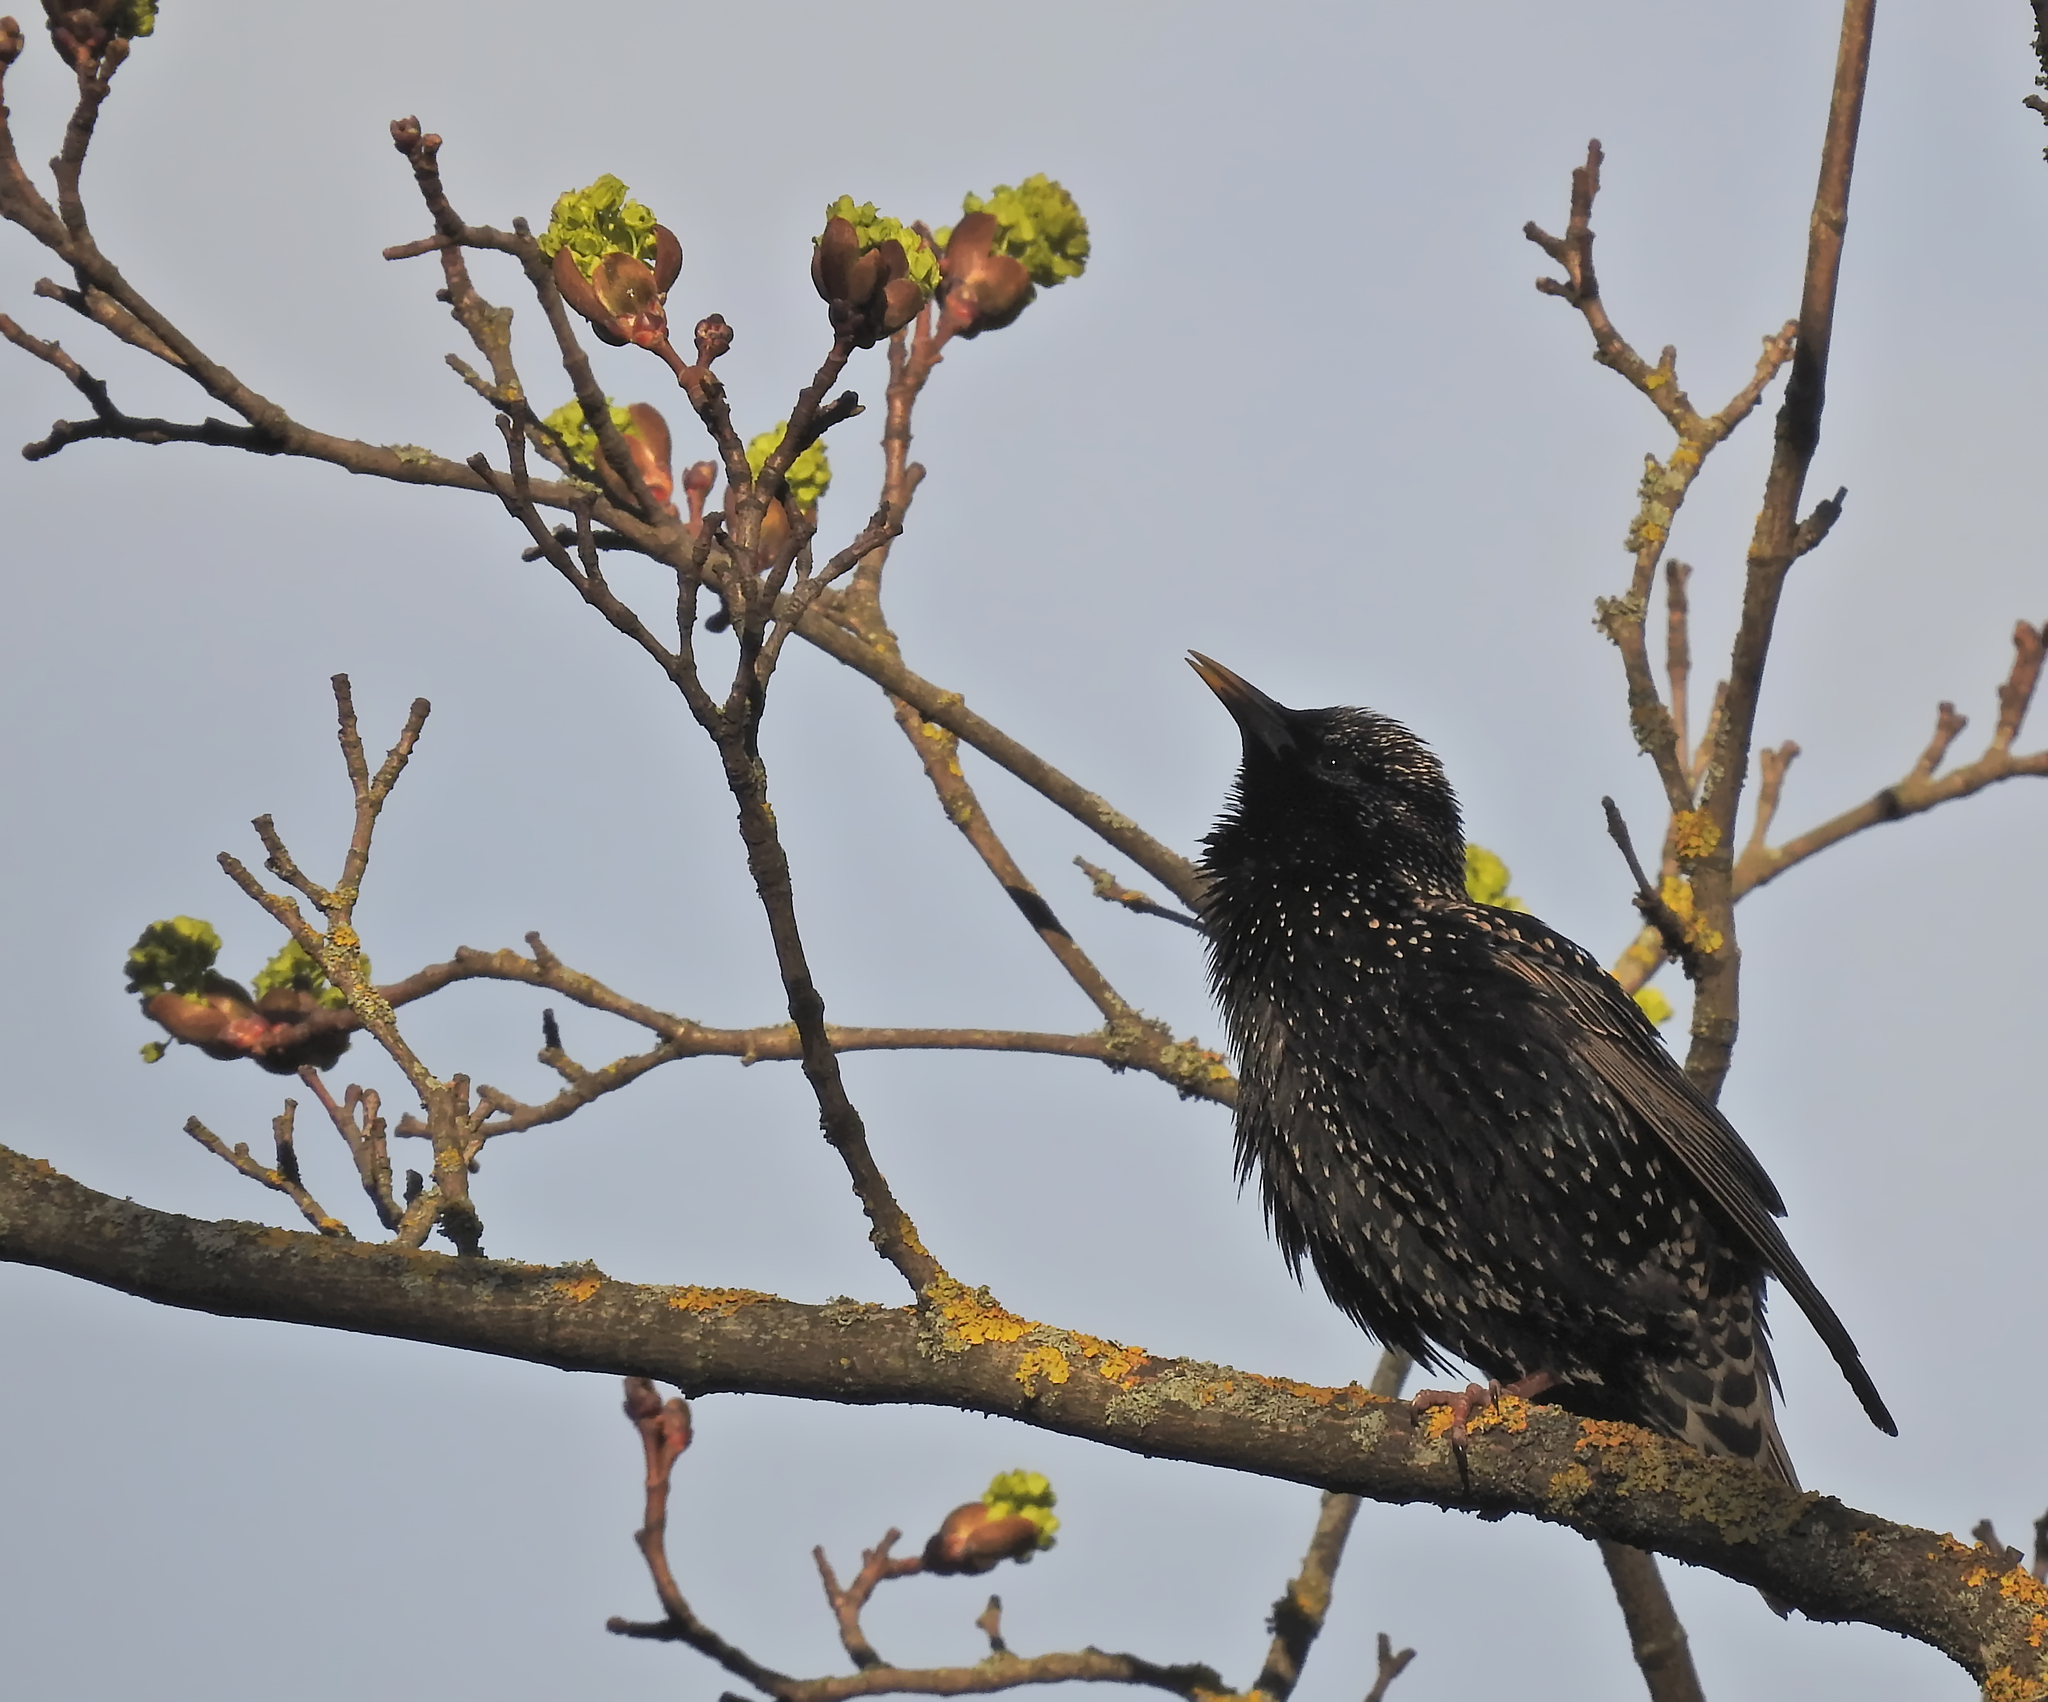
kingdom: Animalia
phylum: Chordata
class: Aves
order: Passeriformes
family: Sturnidae
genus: Sturnus
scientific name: Sturnus vulgaris
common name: Common starling
